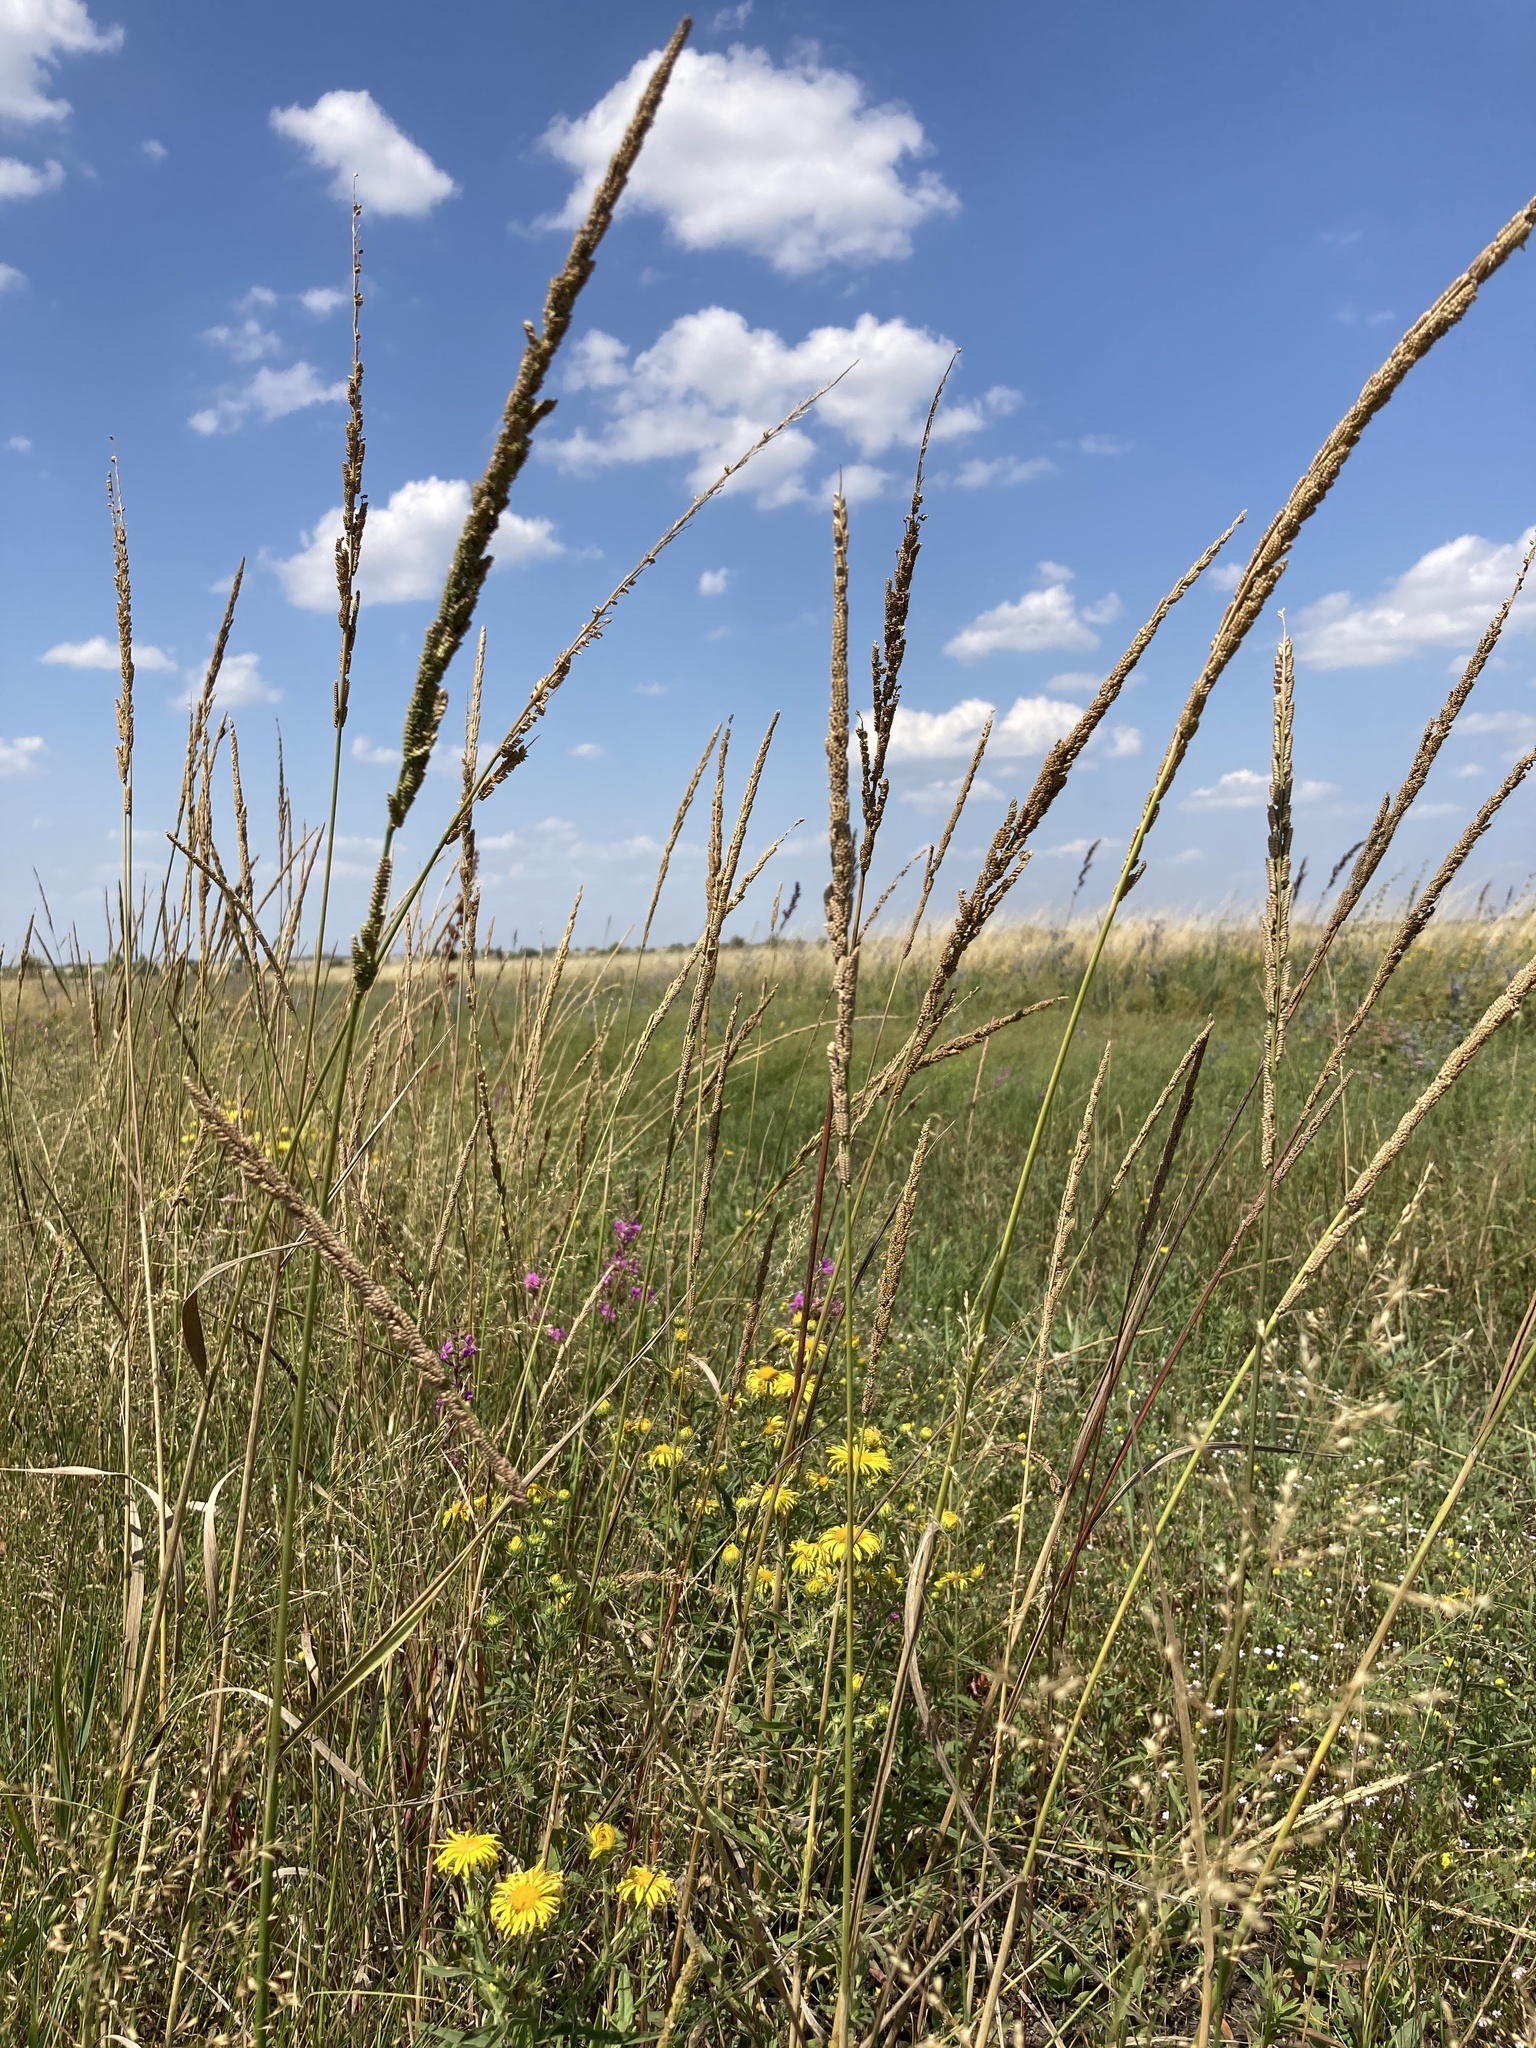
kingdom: Plantae
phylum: Tracheophyta
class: Liliopsida
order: Poales
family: Poaceae
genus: Beckmannia
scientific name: Beckmannia eruciformis
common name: European slough-grass
